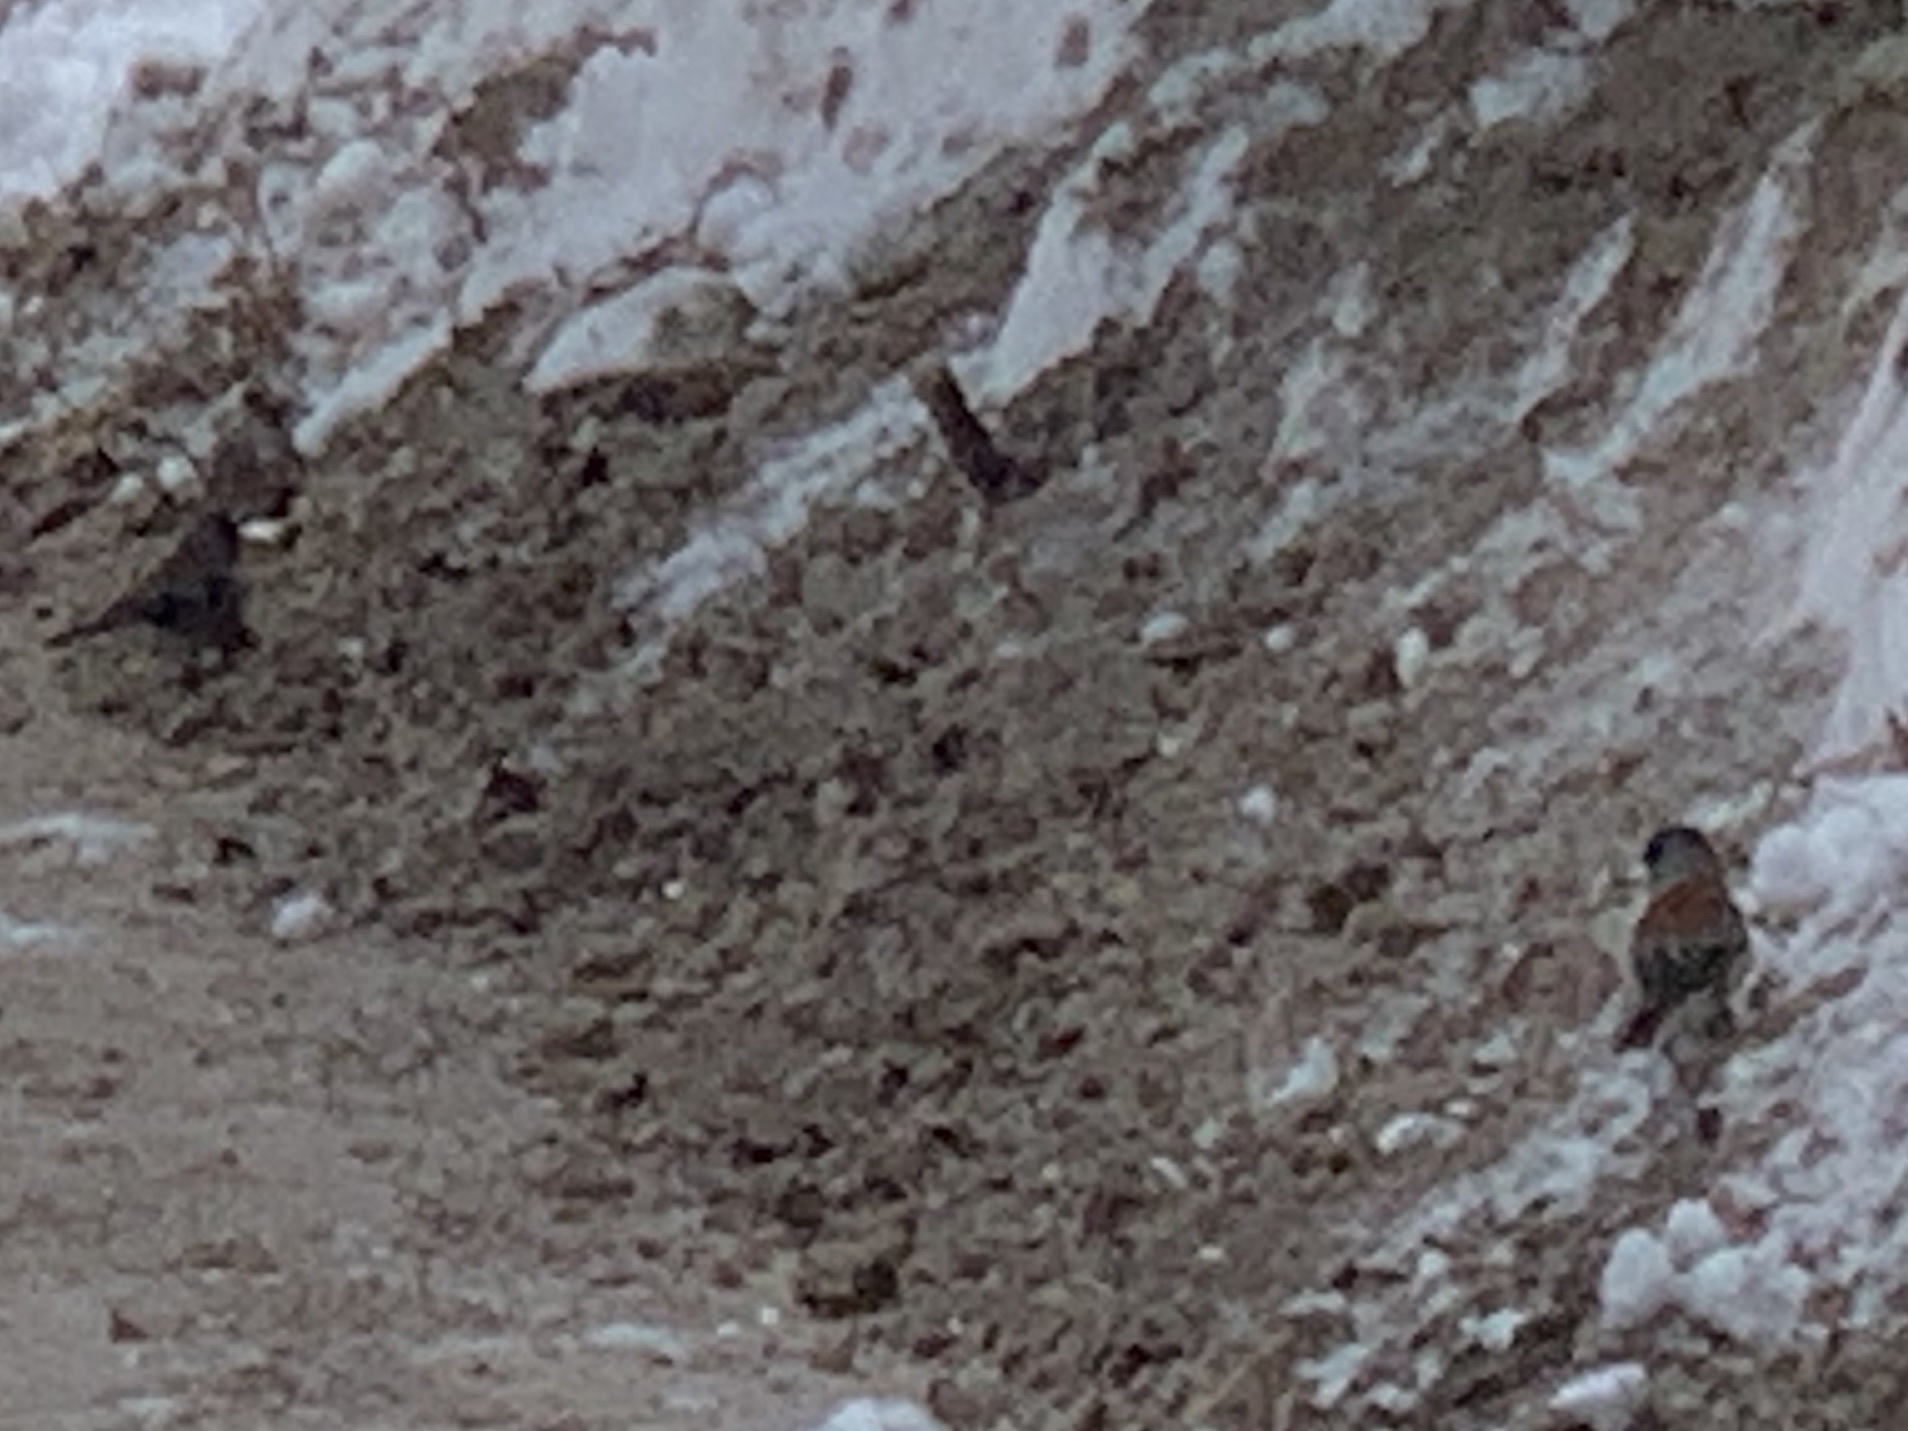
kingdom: Animalia
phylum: Chordata
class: Aves
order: Passeriformes
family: Passerellidae
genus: Junco
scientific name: Junco hyemalis
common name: Dark-eyed junco
